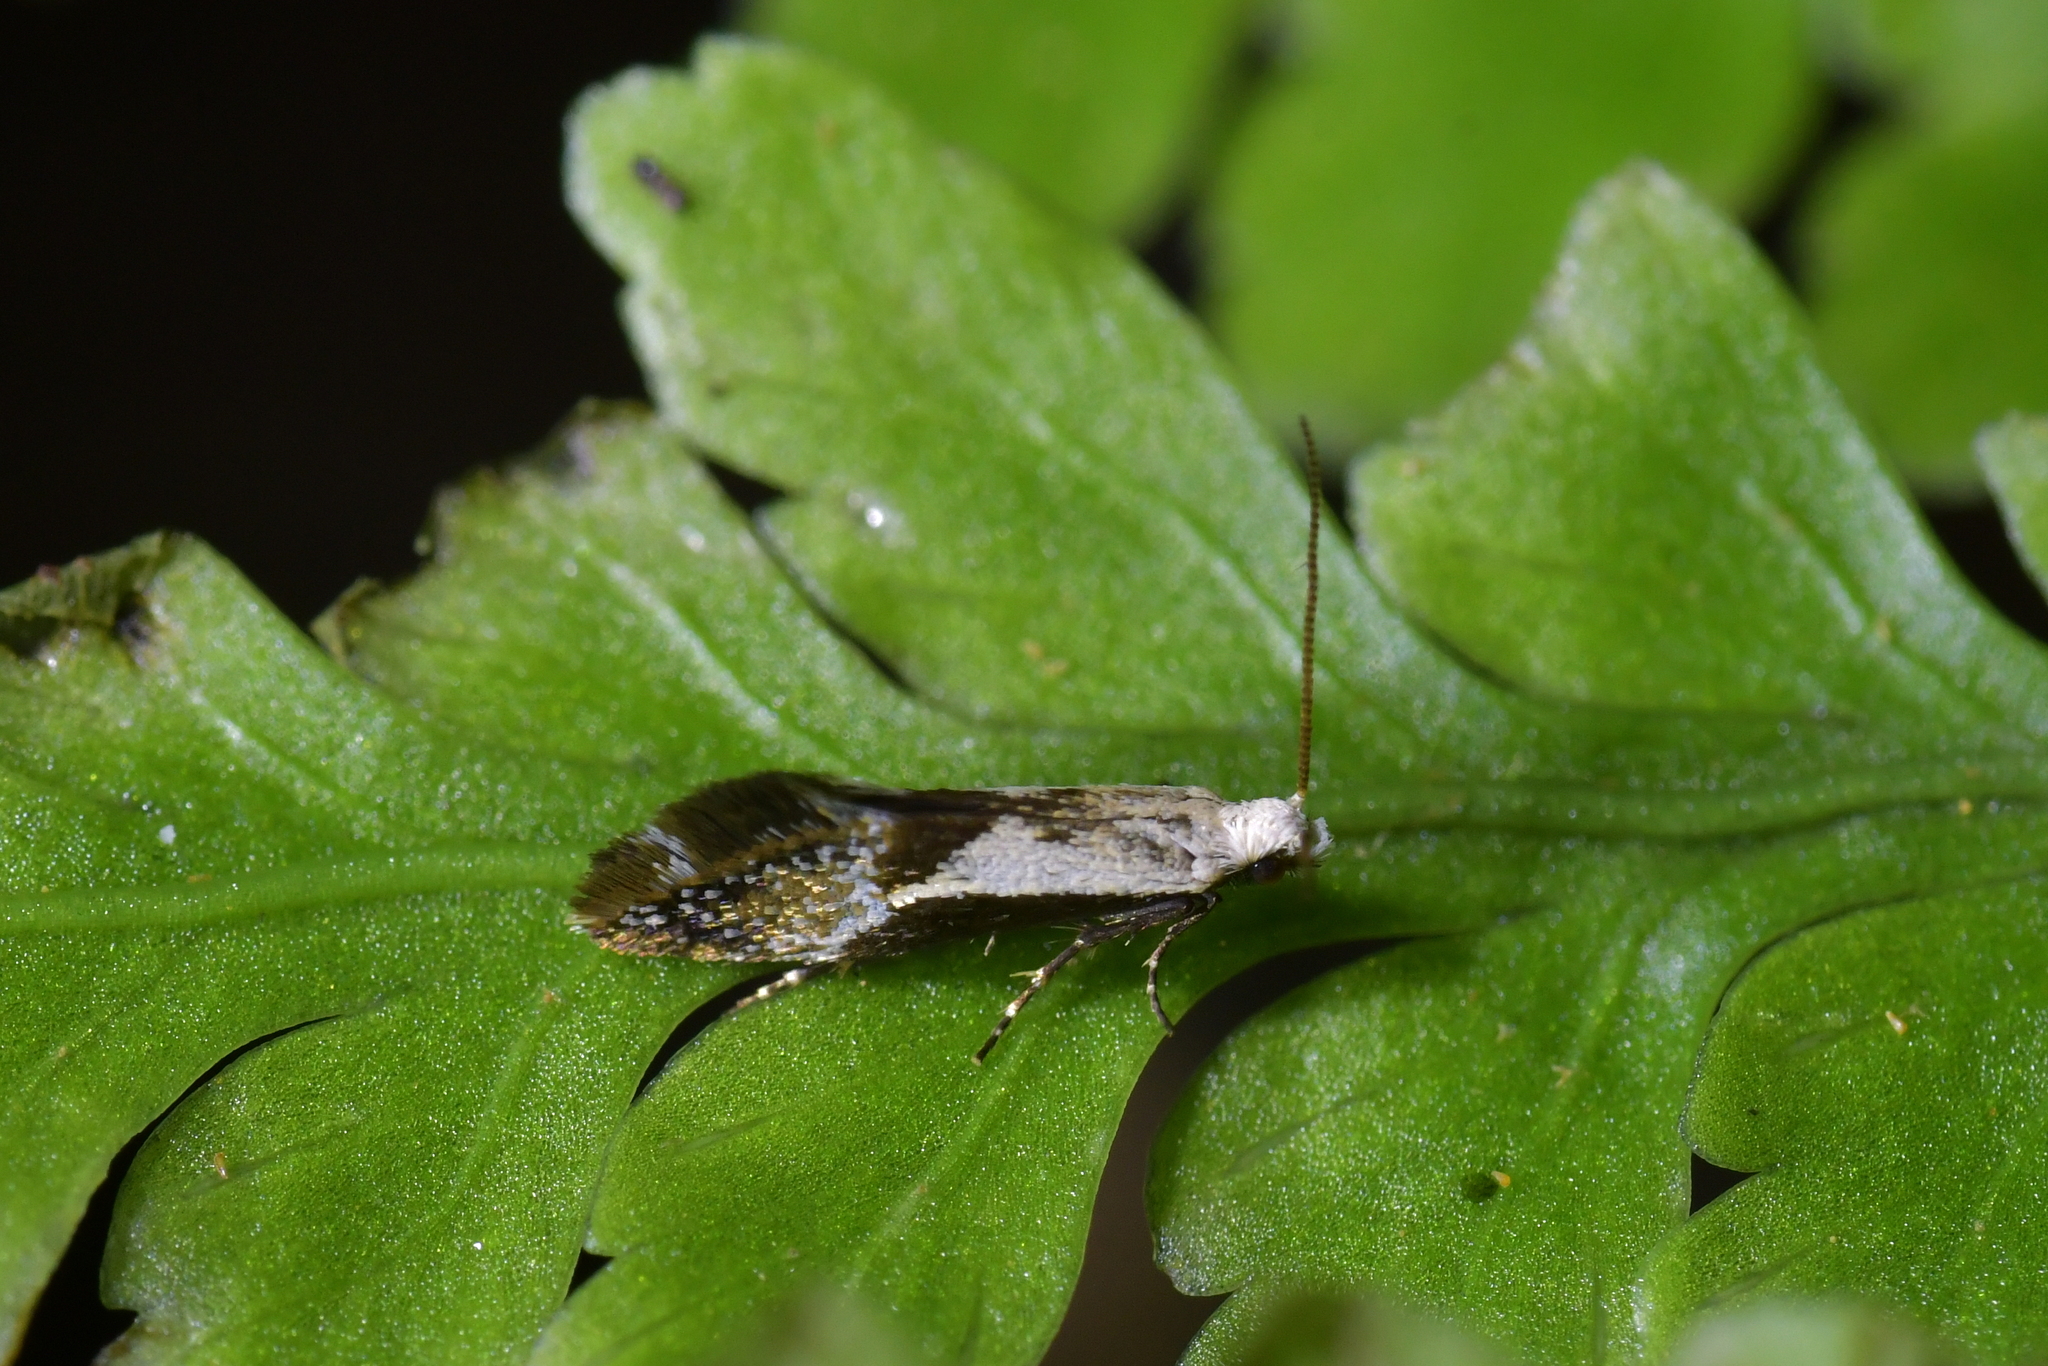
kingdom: Animalia
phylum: Arthropoda
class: Insecta
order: Lepidoptera
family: Mnesarchaeidae
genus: Mnesarchella
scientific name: Mnesarchella fusilella
